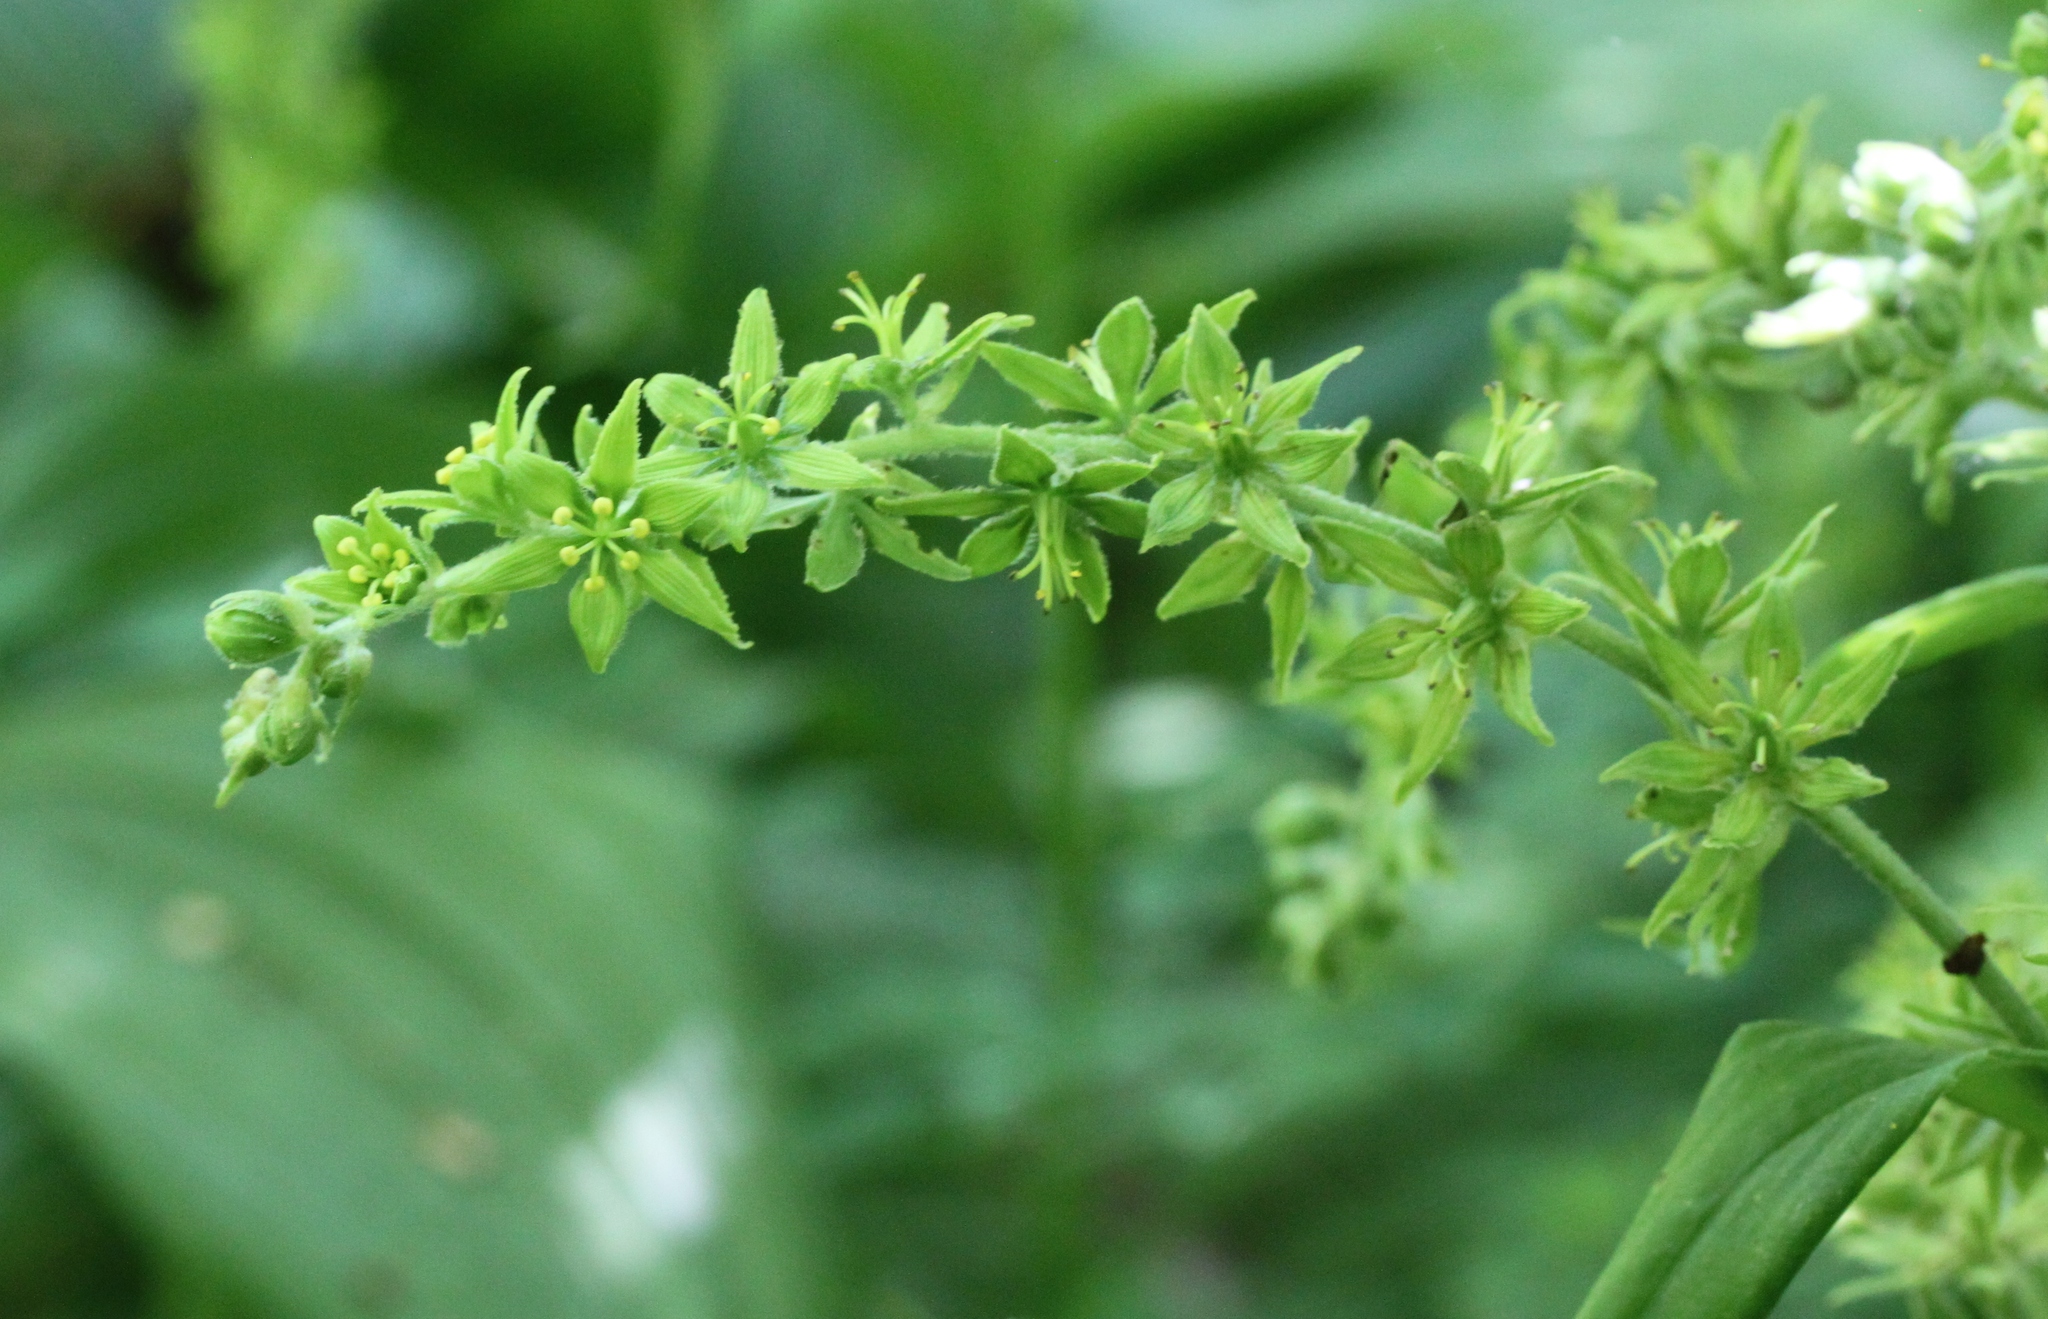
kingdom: Plantae
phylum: Tracheophyta
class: Liliopsida
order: Liliales
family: Melanthiaceae
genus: Veratrum
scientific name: Veratrum viride
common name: American false hellebore
